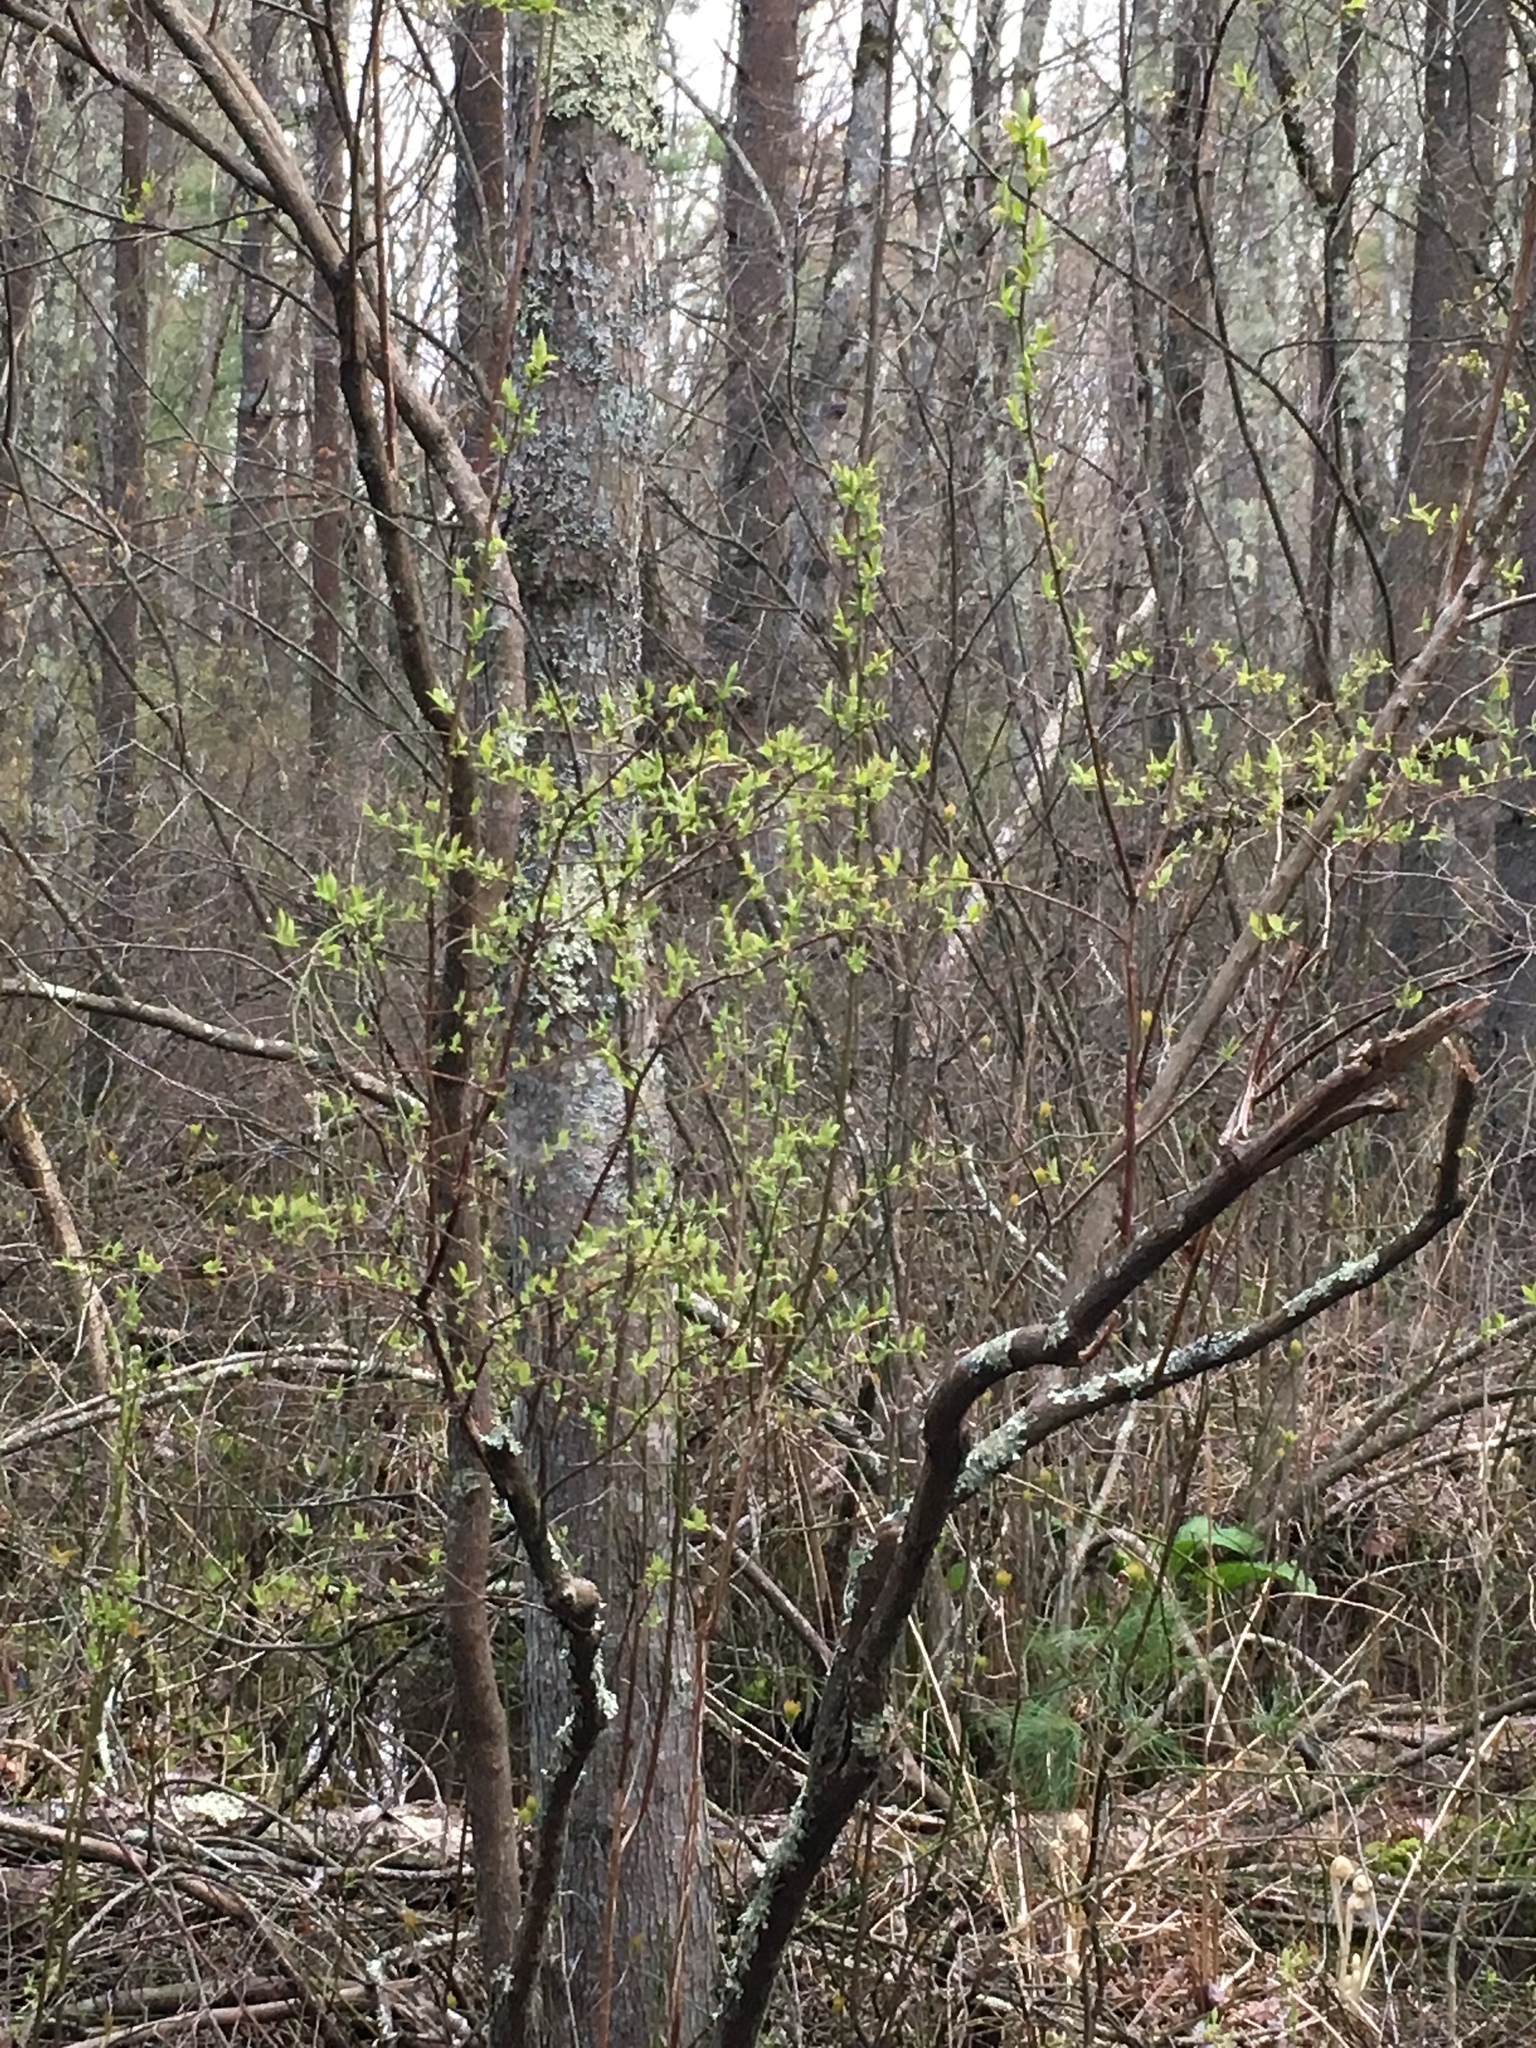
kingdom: Plantae
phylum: Tracheophyta
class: Magnoliopsida
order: Ericales
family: Ericaceae
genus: Vaccinium
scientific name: Vaccinium corymbosum
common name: Blueberry
